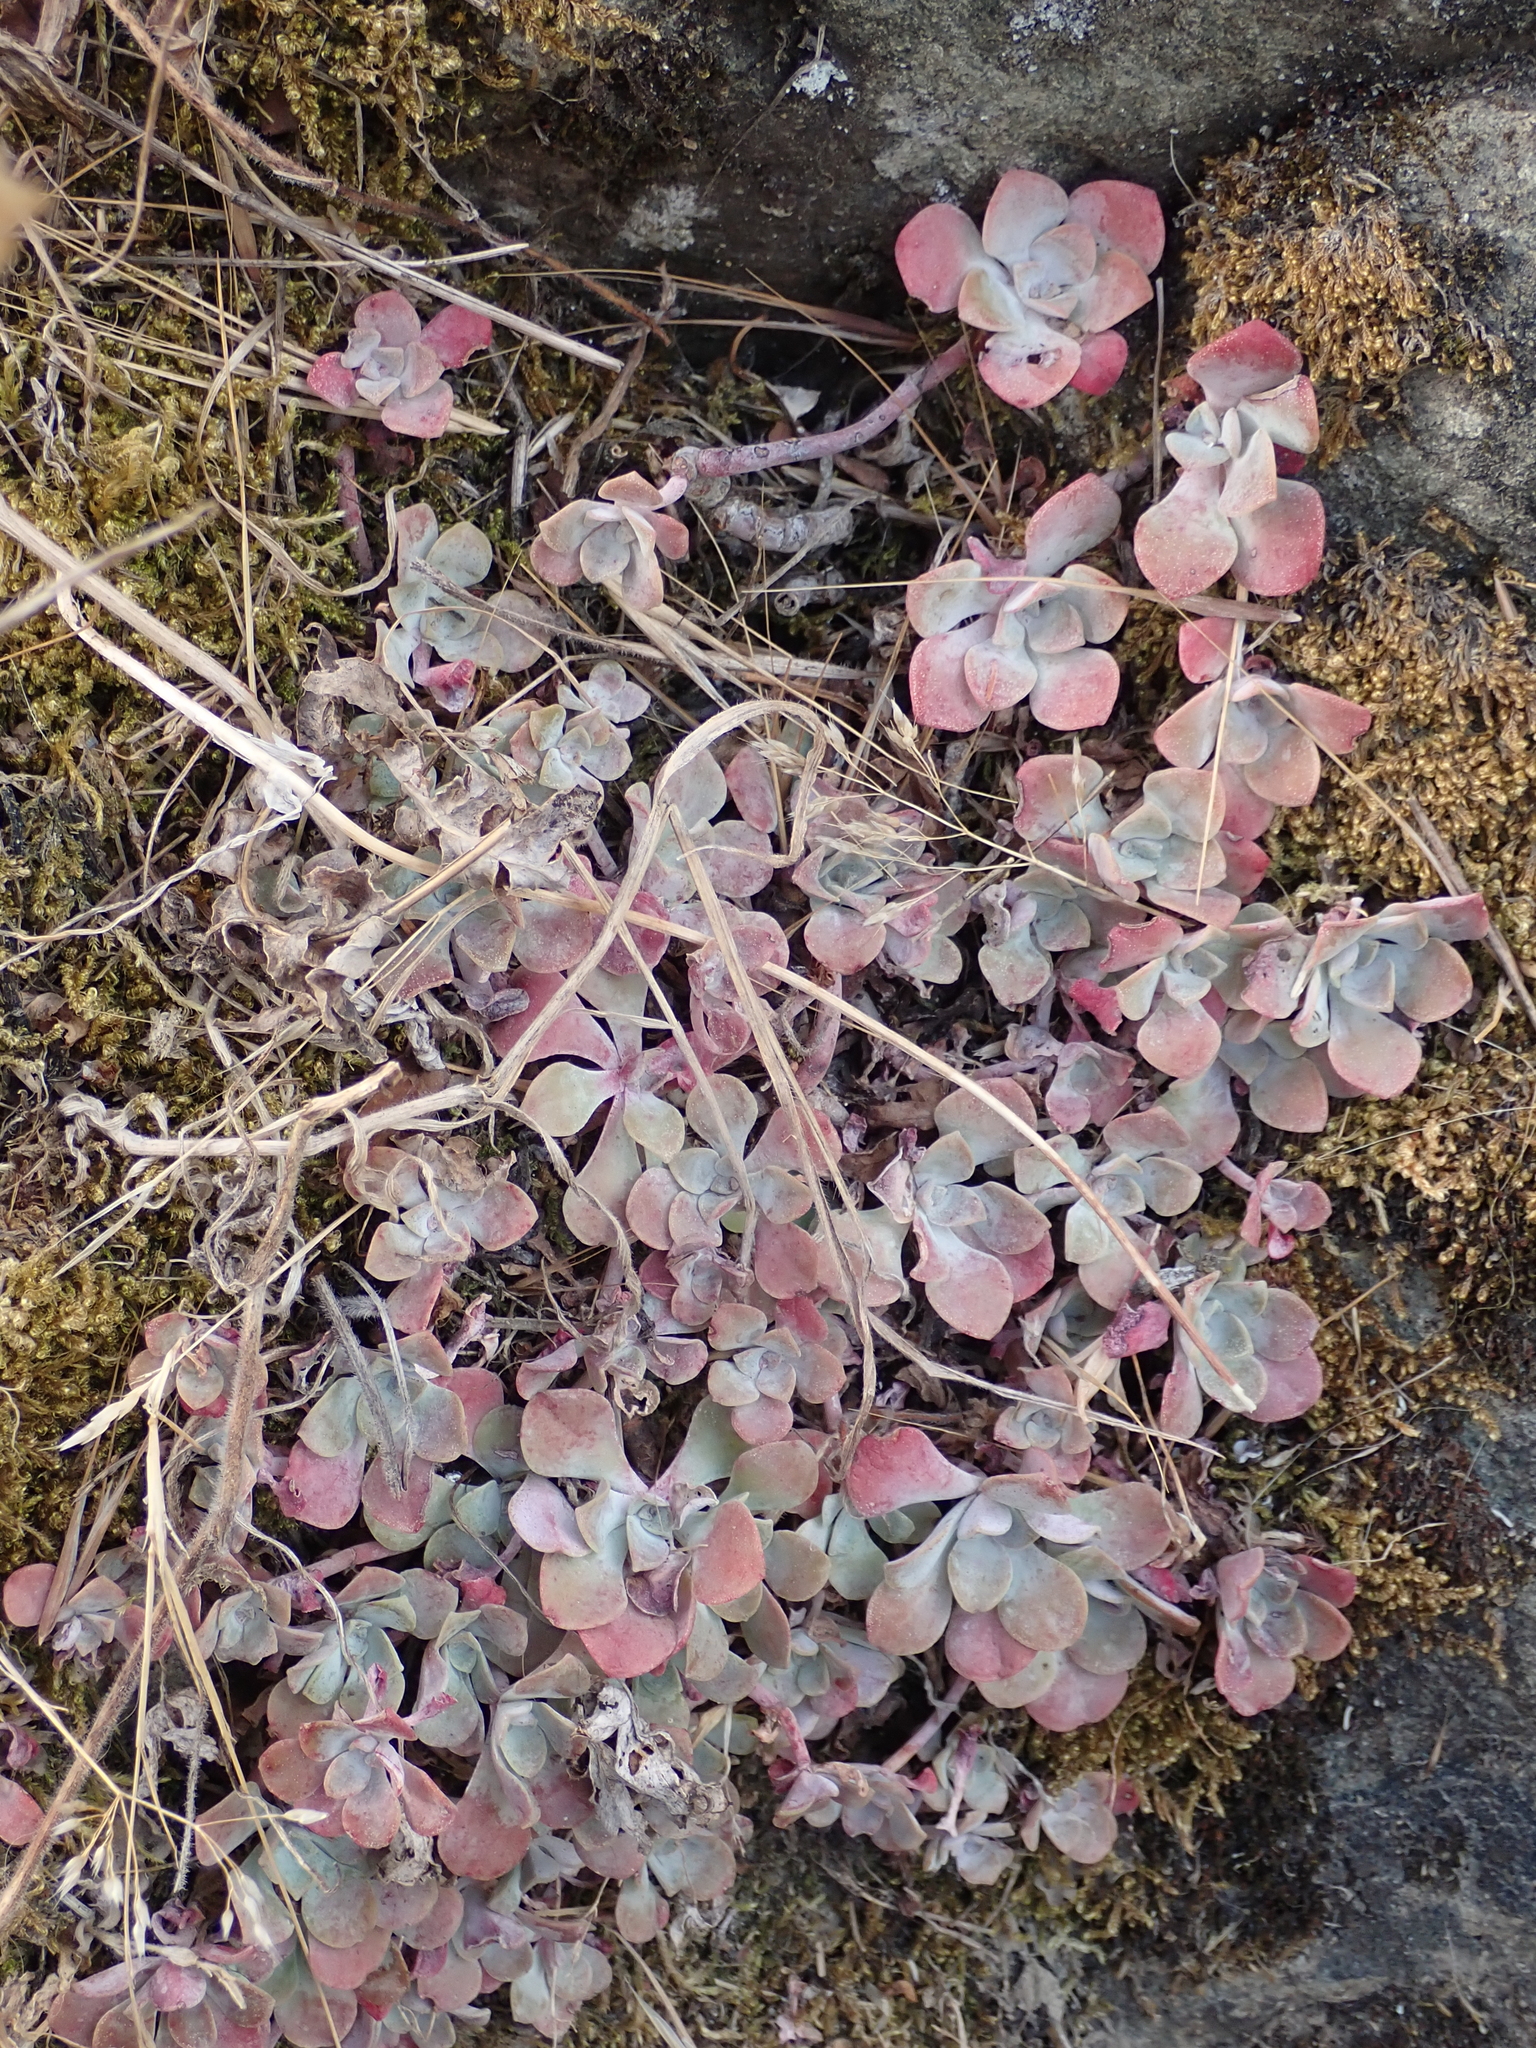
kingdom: Plantae
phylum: Tracheophyta
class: Magnoliopsida
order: Saxifragales
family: Crassulaceae
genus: Sedum
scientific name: Sedum spathulifolium
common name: Colorado stonecrop
